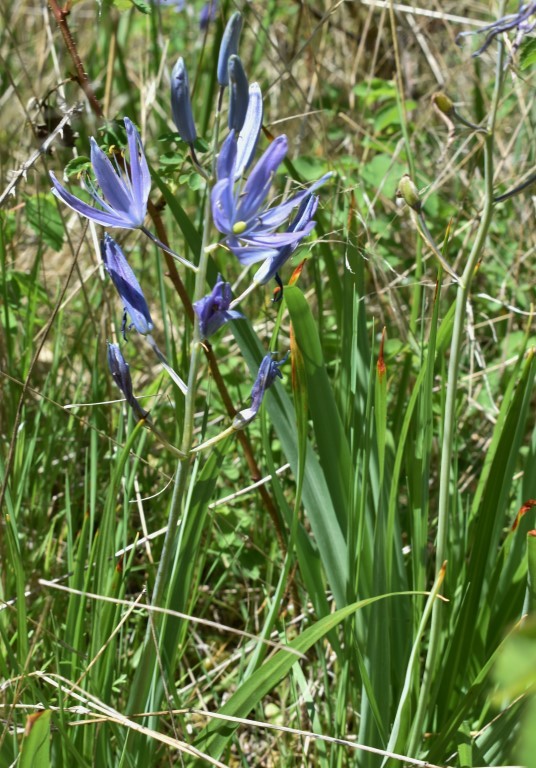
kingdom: Plantae
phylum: Tracheophyta
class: Liliopsida
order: Asparagales
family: Asparagaceae
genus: Camassia
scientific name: Camassia leichtlinii
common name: Leichtlin's camas
